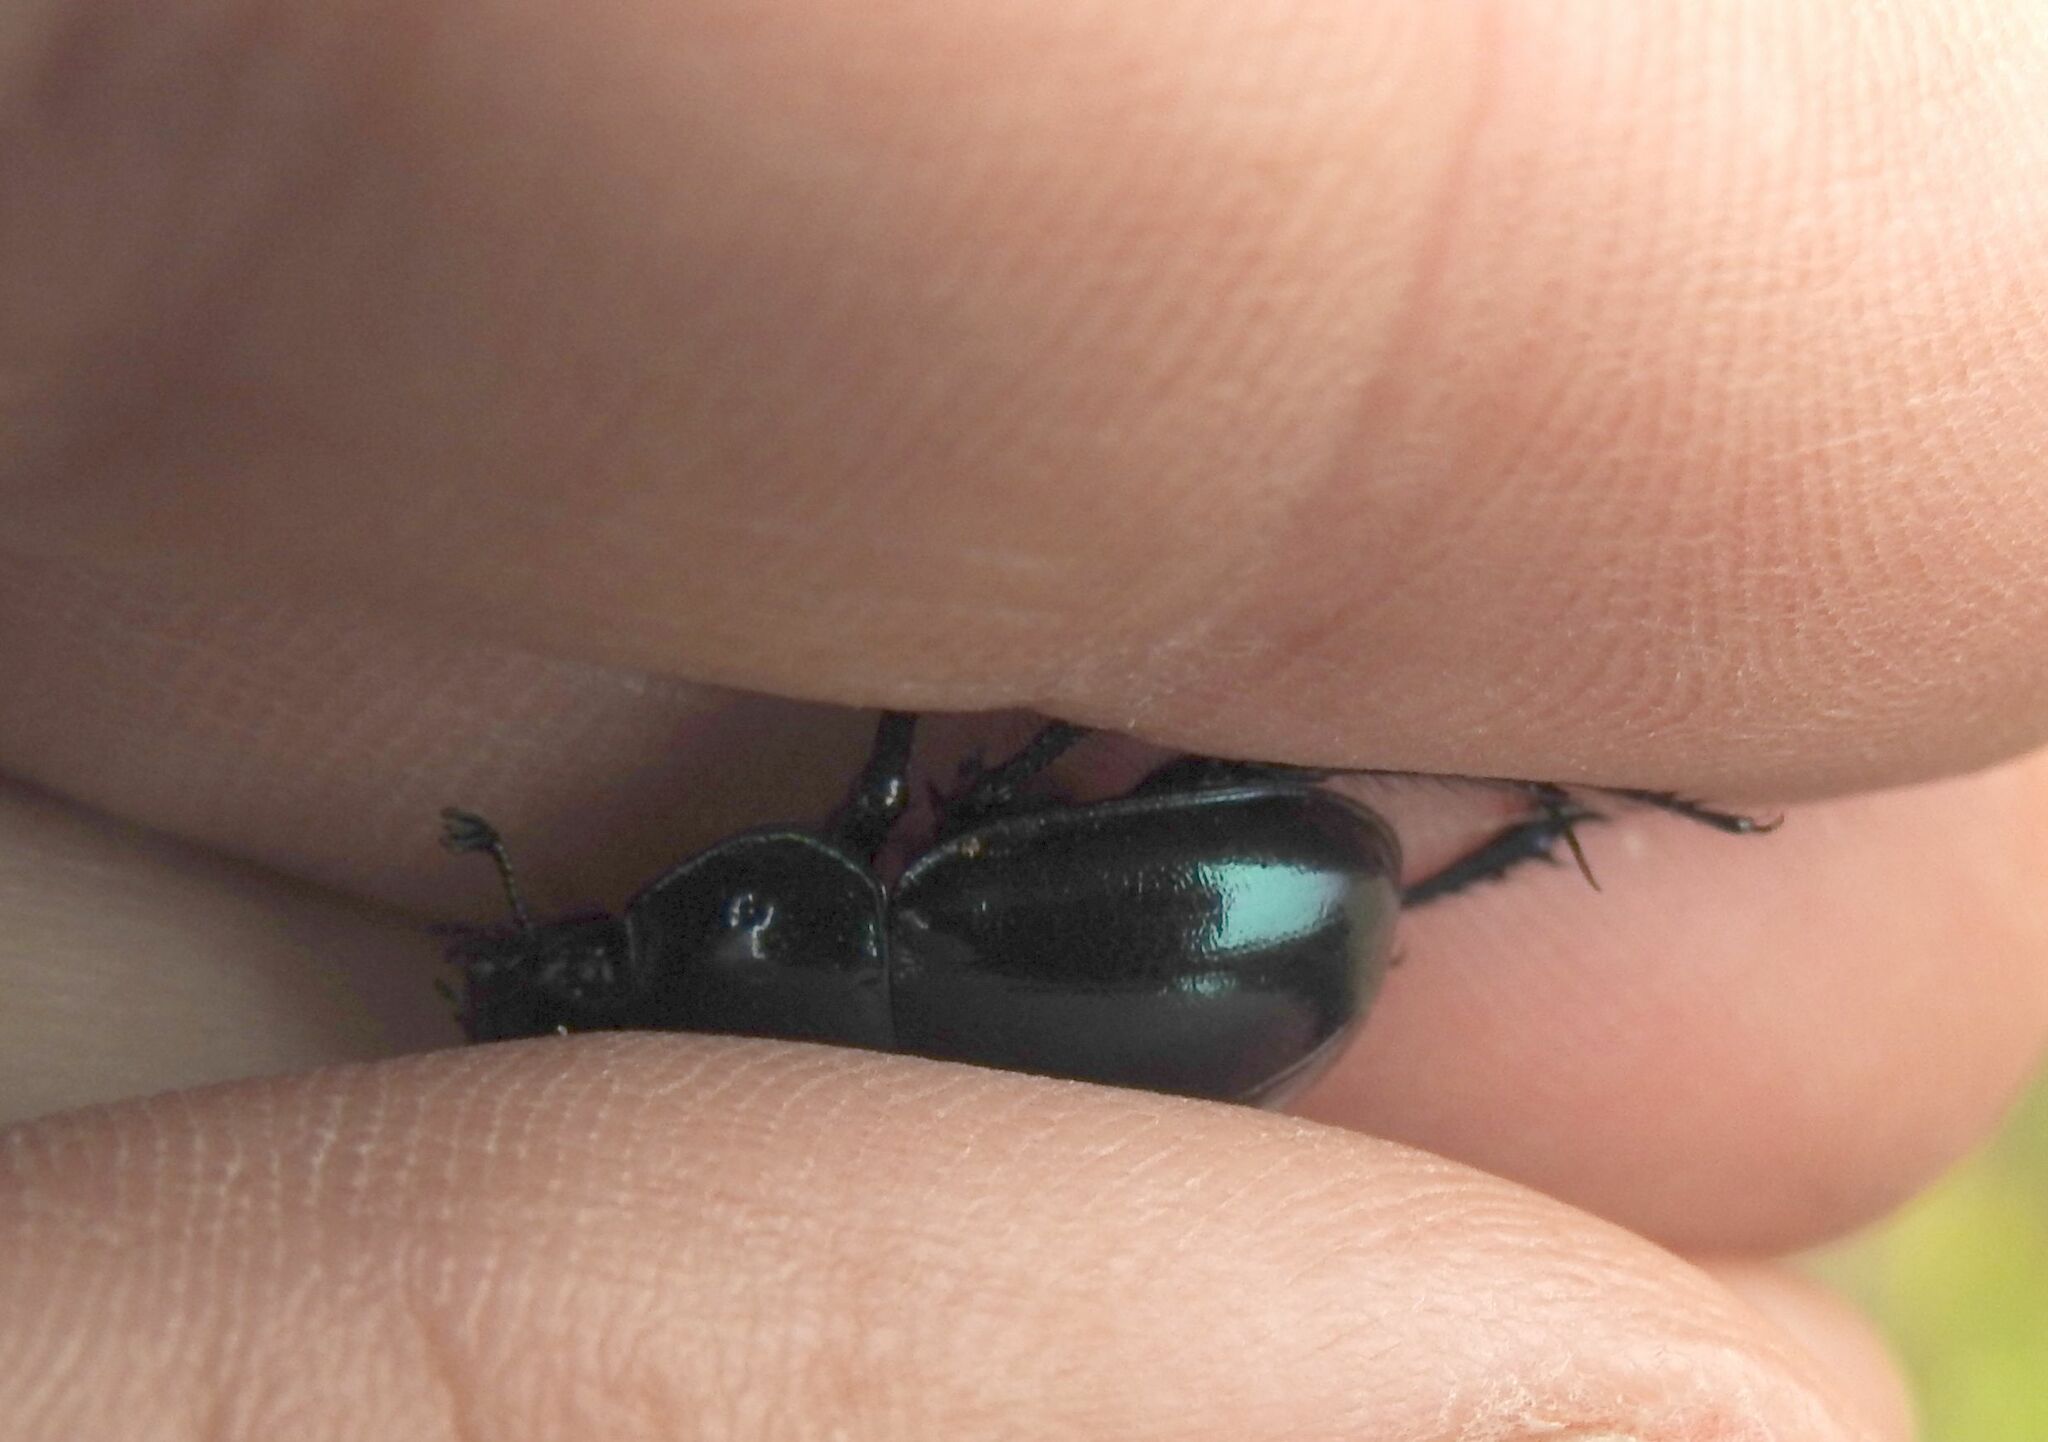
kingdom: Animalia
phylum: Arthropoda
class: Insecta
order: Coleoptera
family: Geotrupidae
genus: Trypocopris
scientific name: Trypocopris pyrenaeus
